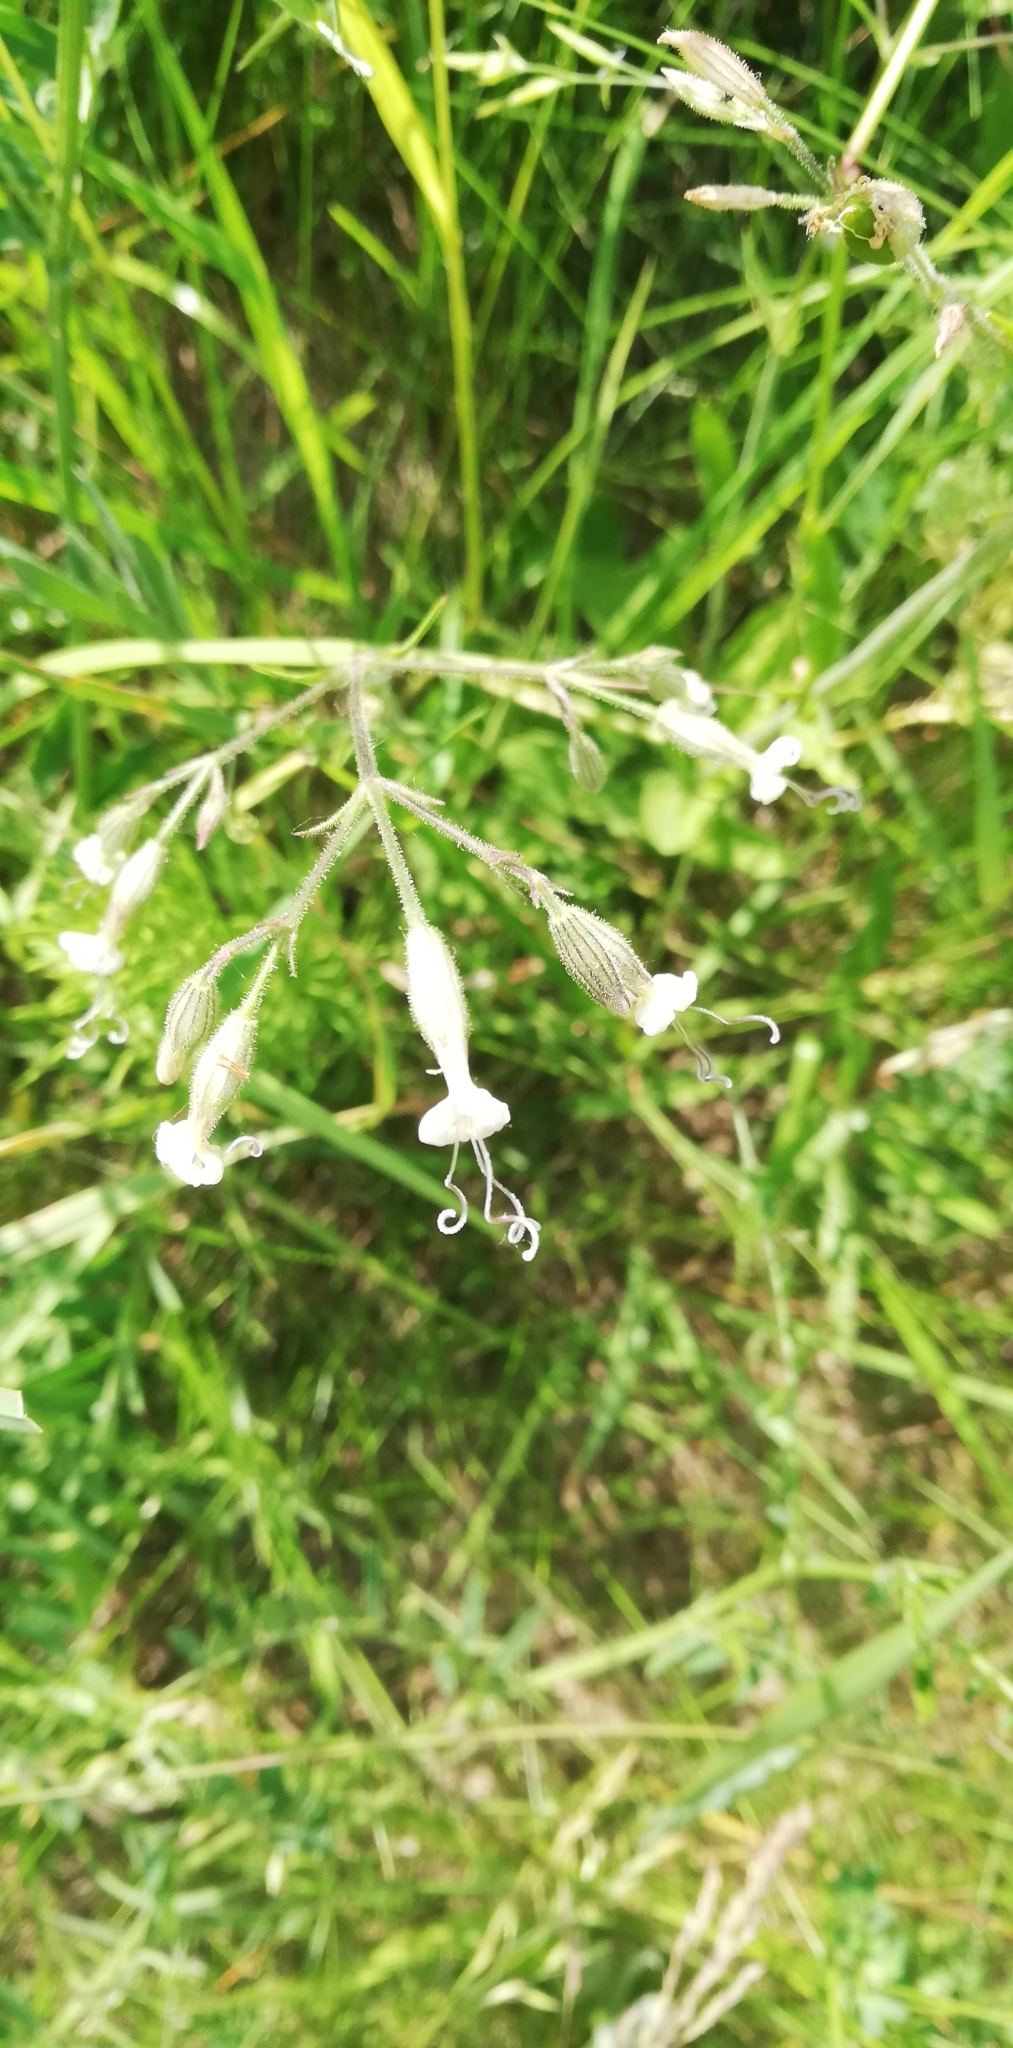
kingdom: Plantae
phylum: Tracheophyta
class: Magnoliopsida
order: Caryophyllales
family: Caryophyllaceae
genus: Silene
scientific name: Silene nutans
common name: Nottingham catchfly
